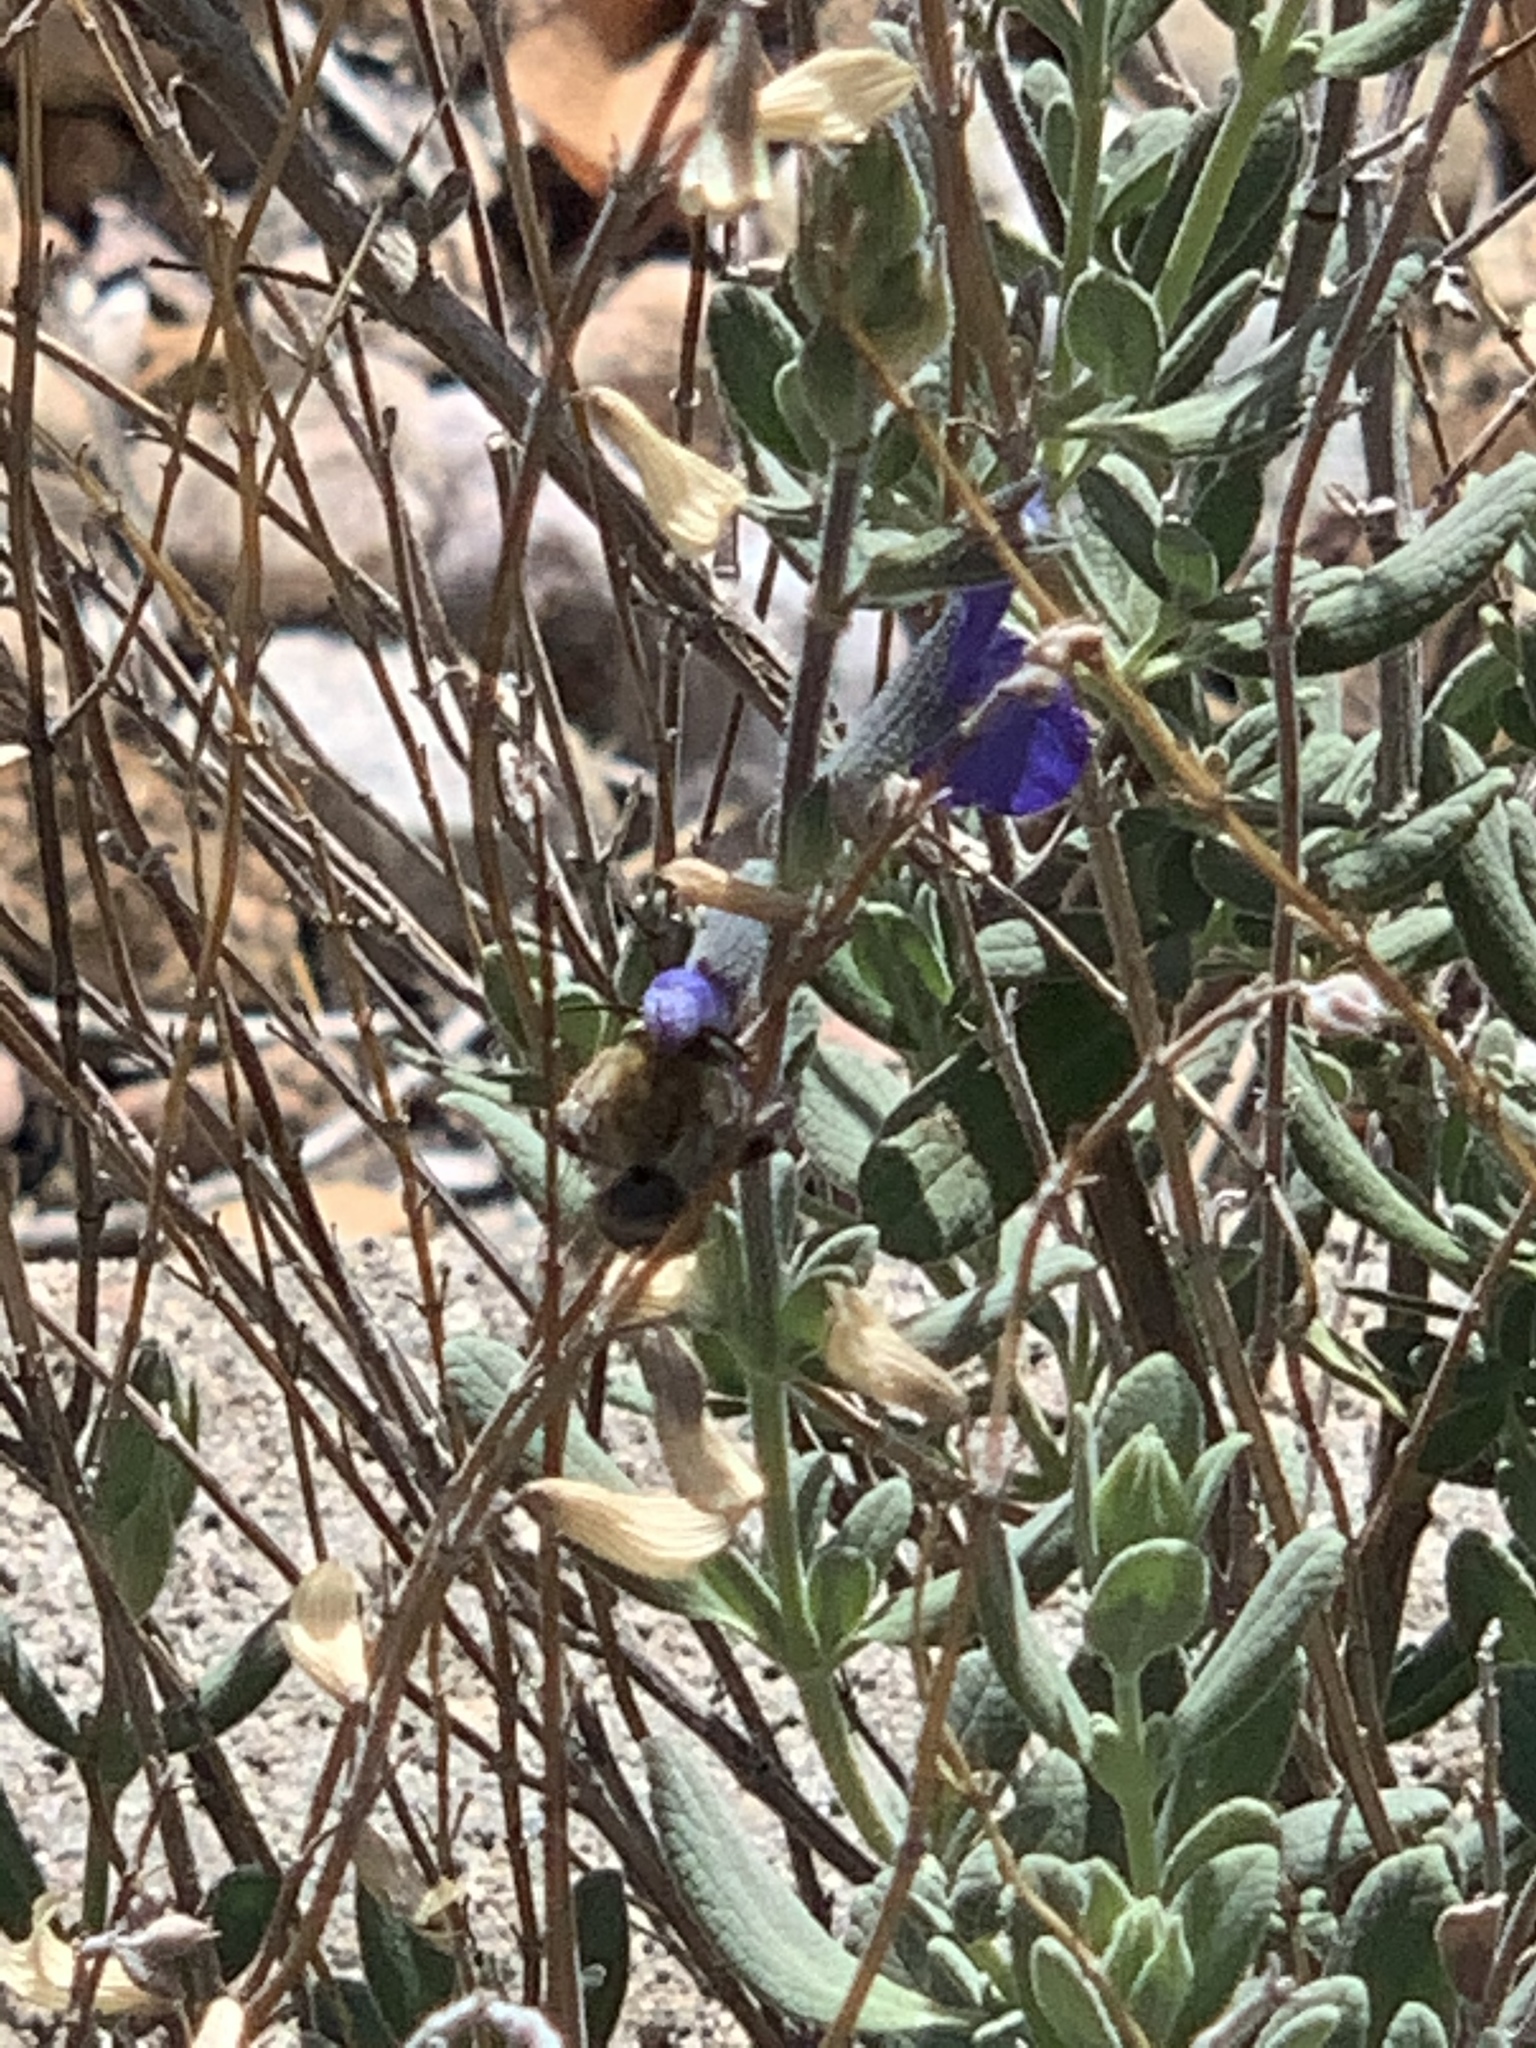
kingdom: Animalia
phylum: Arthropoda
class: Insecta
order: Hymenoptera
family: Apidae
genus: Anthophora
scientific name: Anthophora californica
